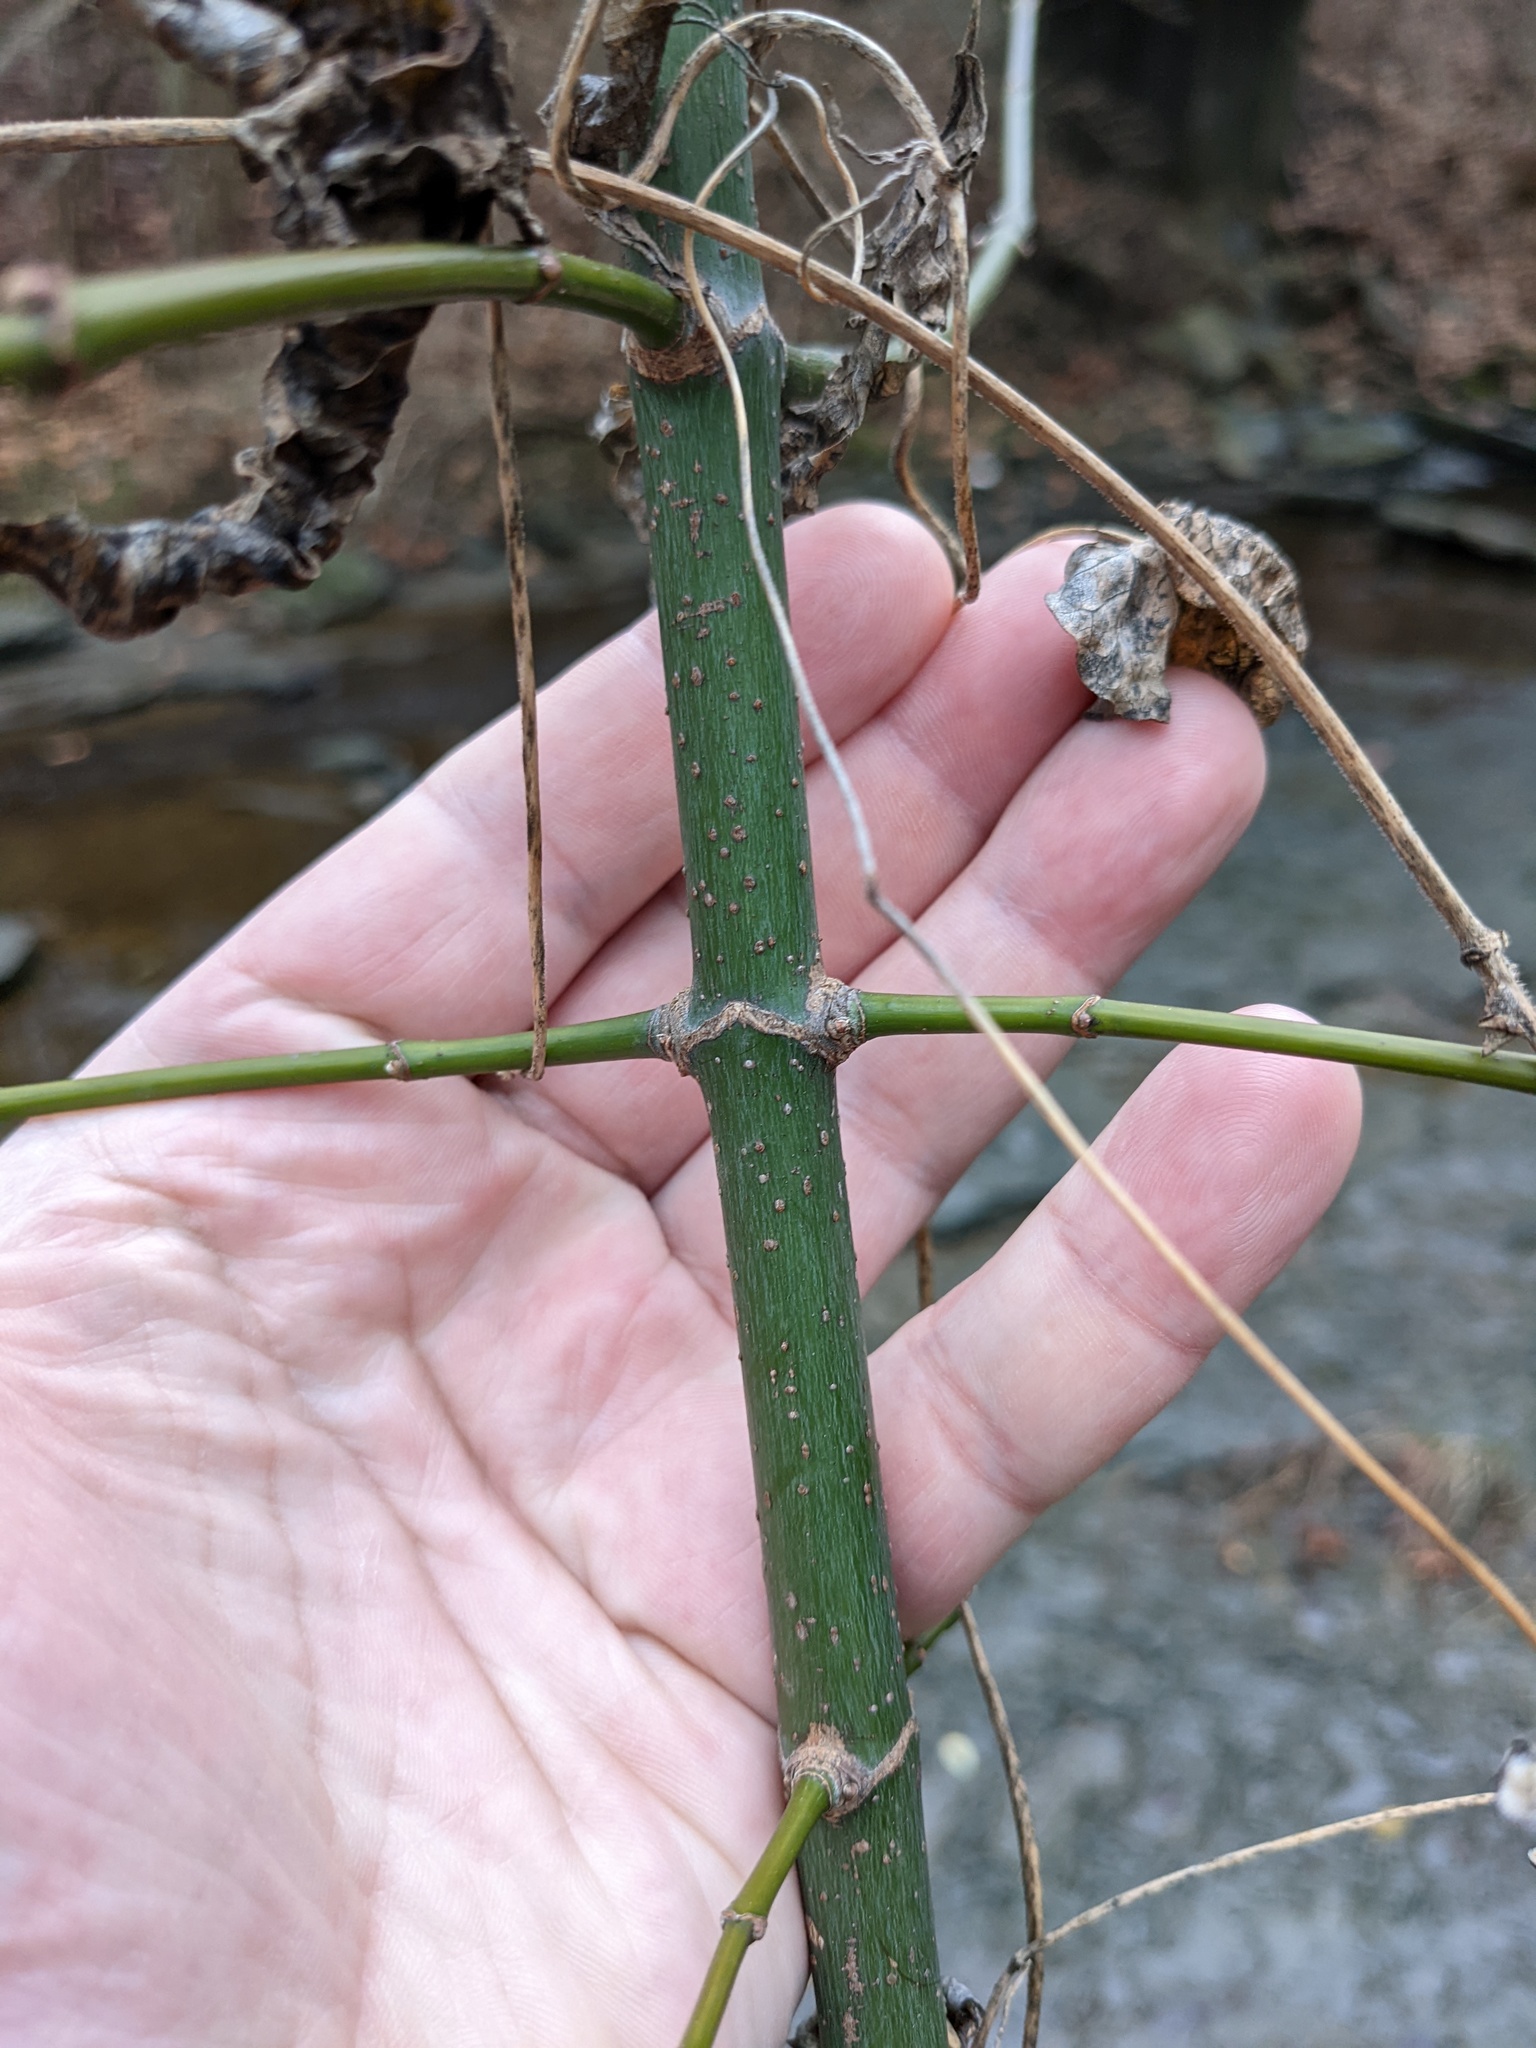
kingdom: Plantae
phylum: Tracheophyta
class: Magnoliopsida
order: Sapindales
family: Sapindaceae
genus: Acer
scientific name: Acer negundo
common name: Ashleaf maple
